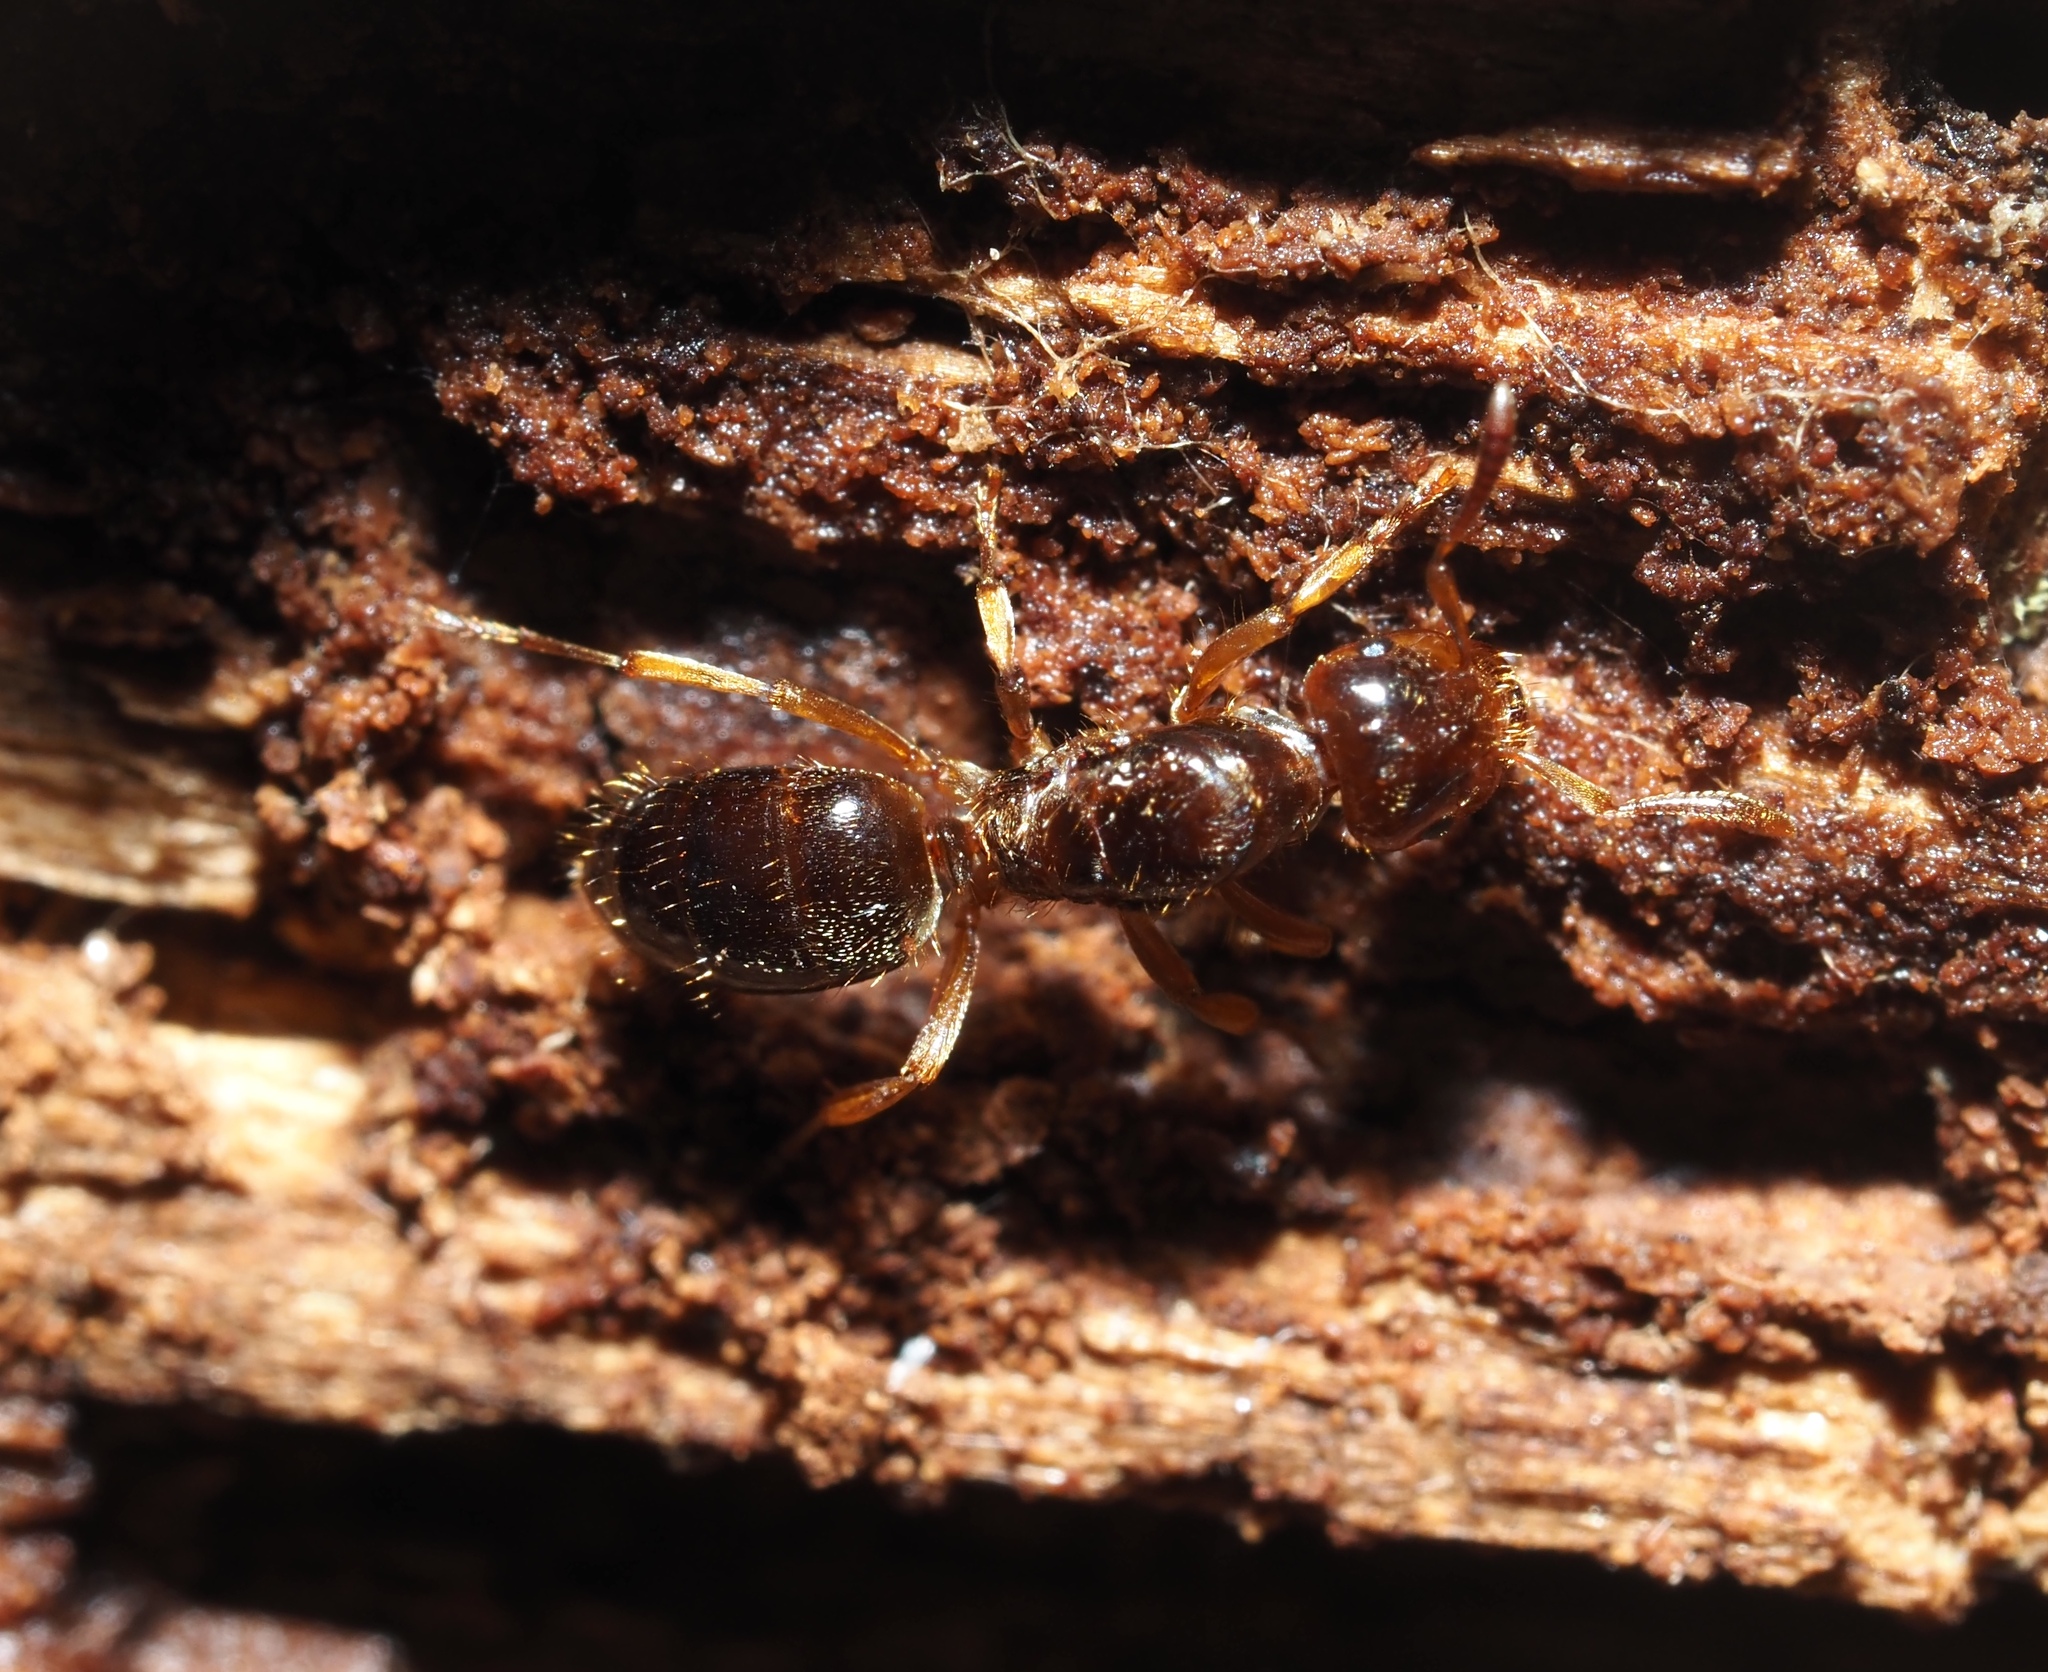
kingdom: Animalia
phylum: Arthropoda
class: Insecta
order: Hymenoptera
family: Formicidae
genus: Lasius
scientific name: Lasius claviger
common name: Common citronella ant
